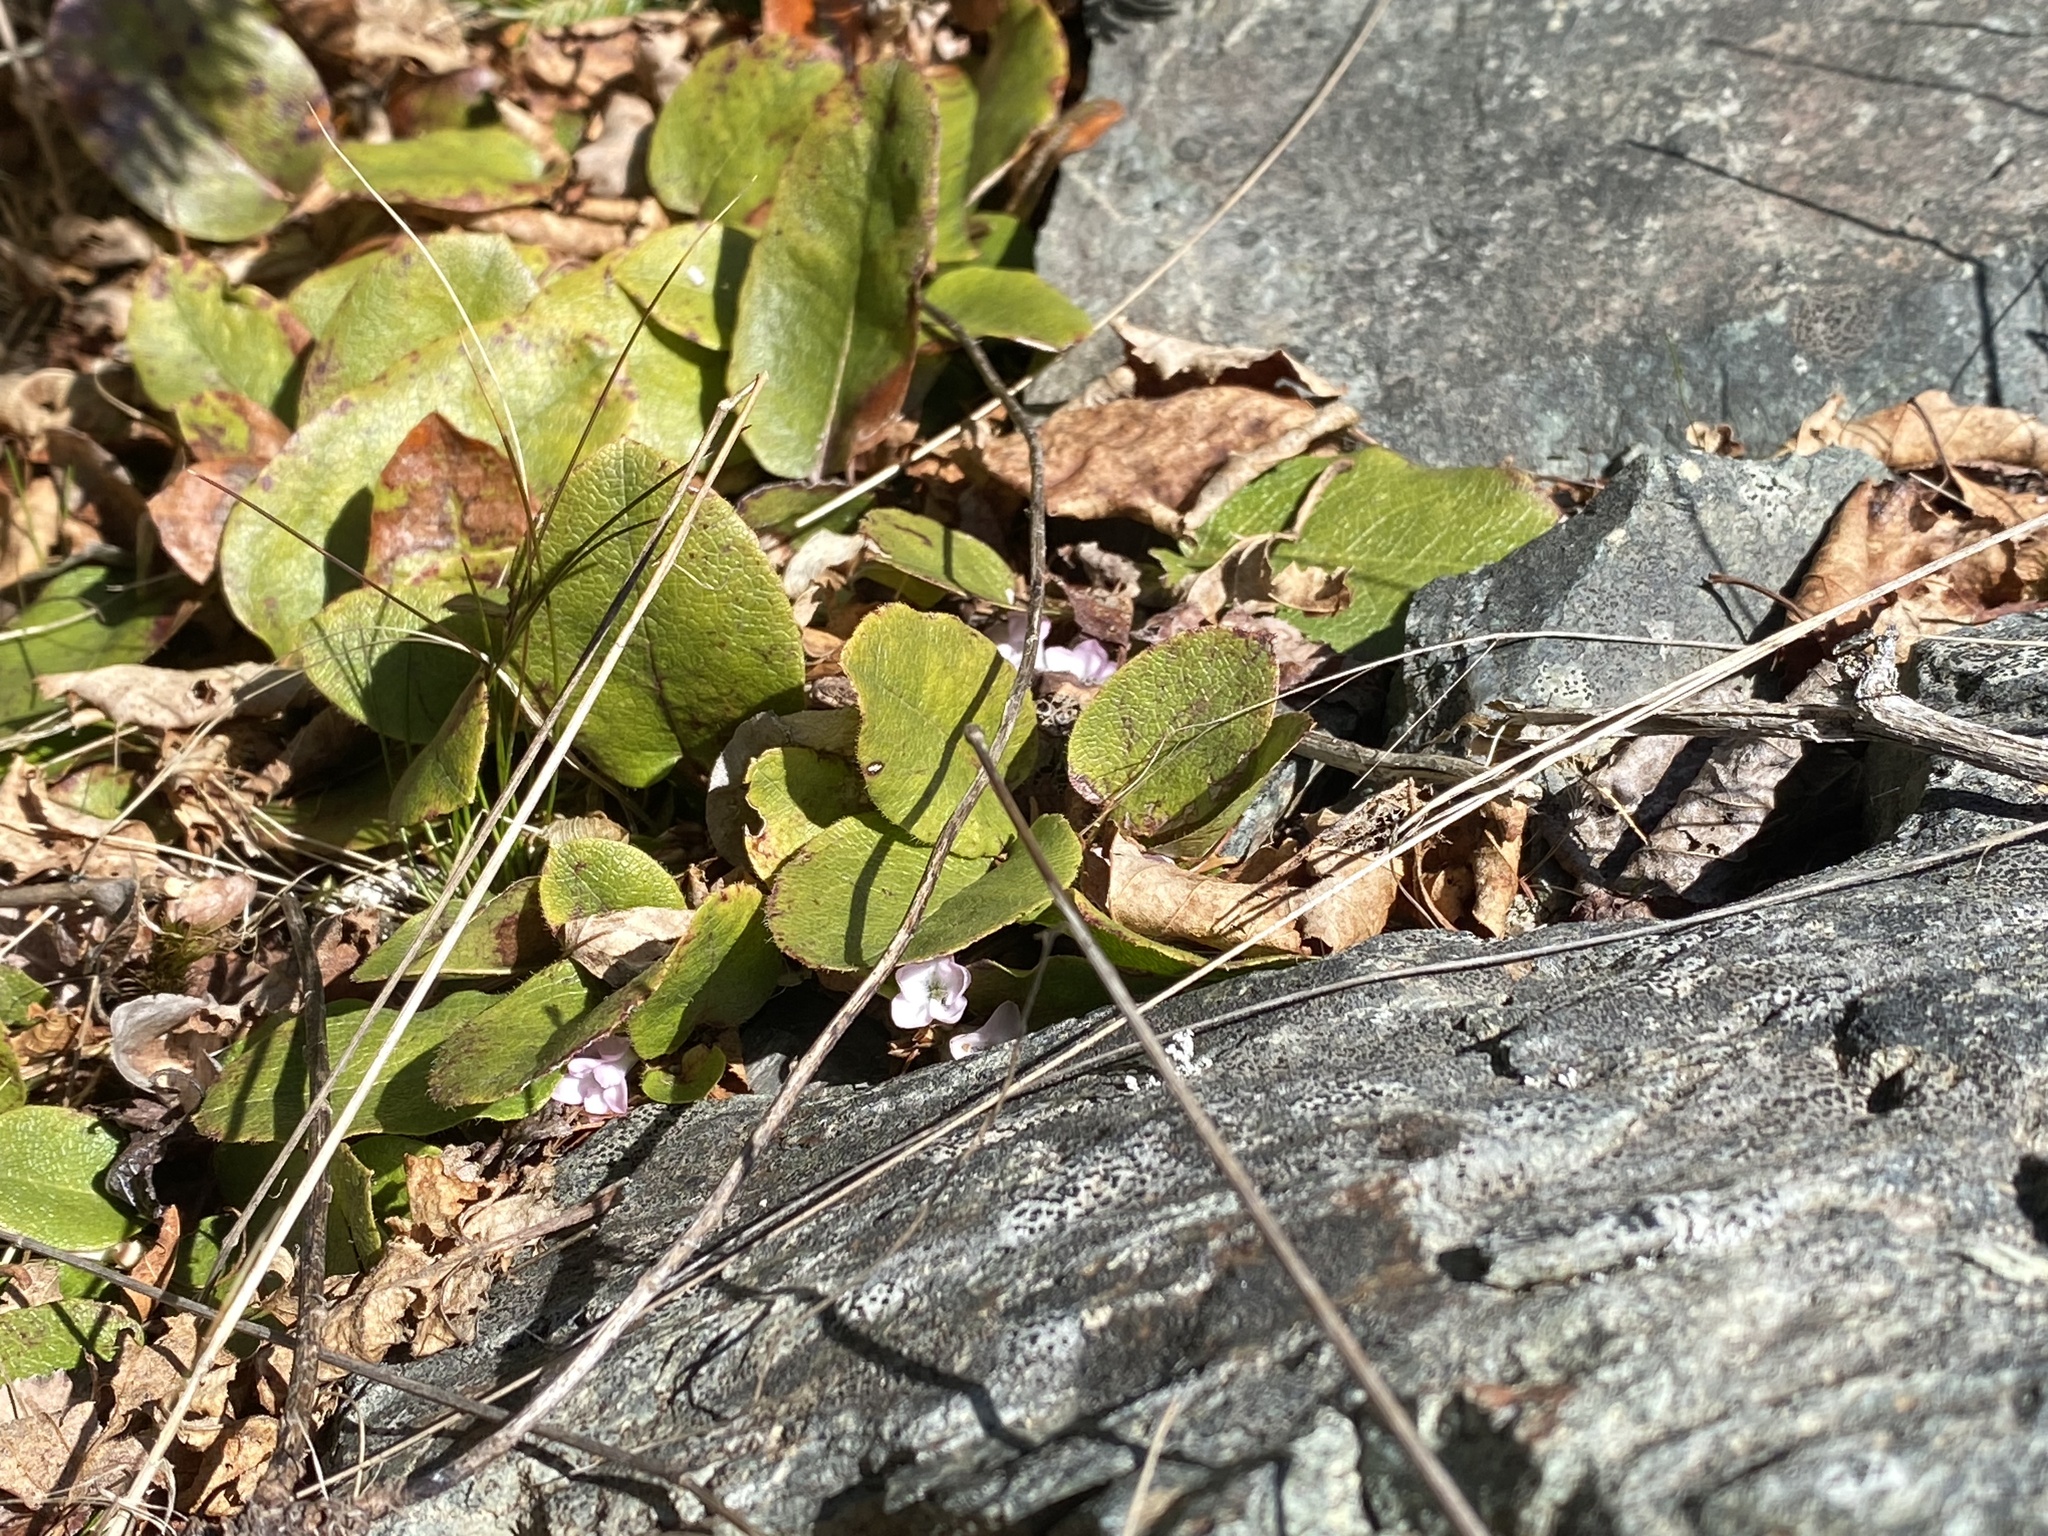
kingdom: Plantae
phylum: Tracheophyta
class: Magnoliopsida
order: Ericales
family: Ericaceae
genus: Epigaea
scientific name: Epigaea repens
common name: Gravelroot
